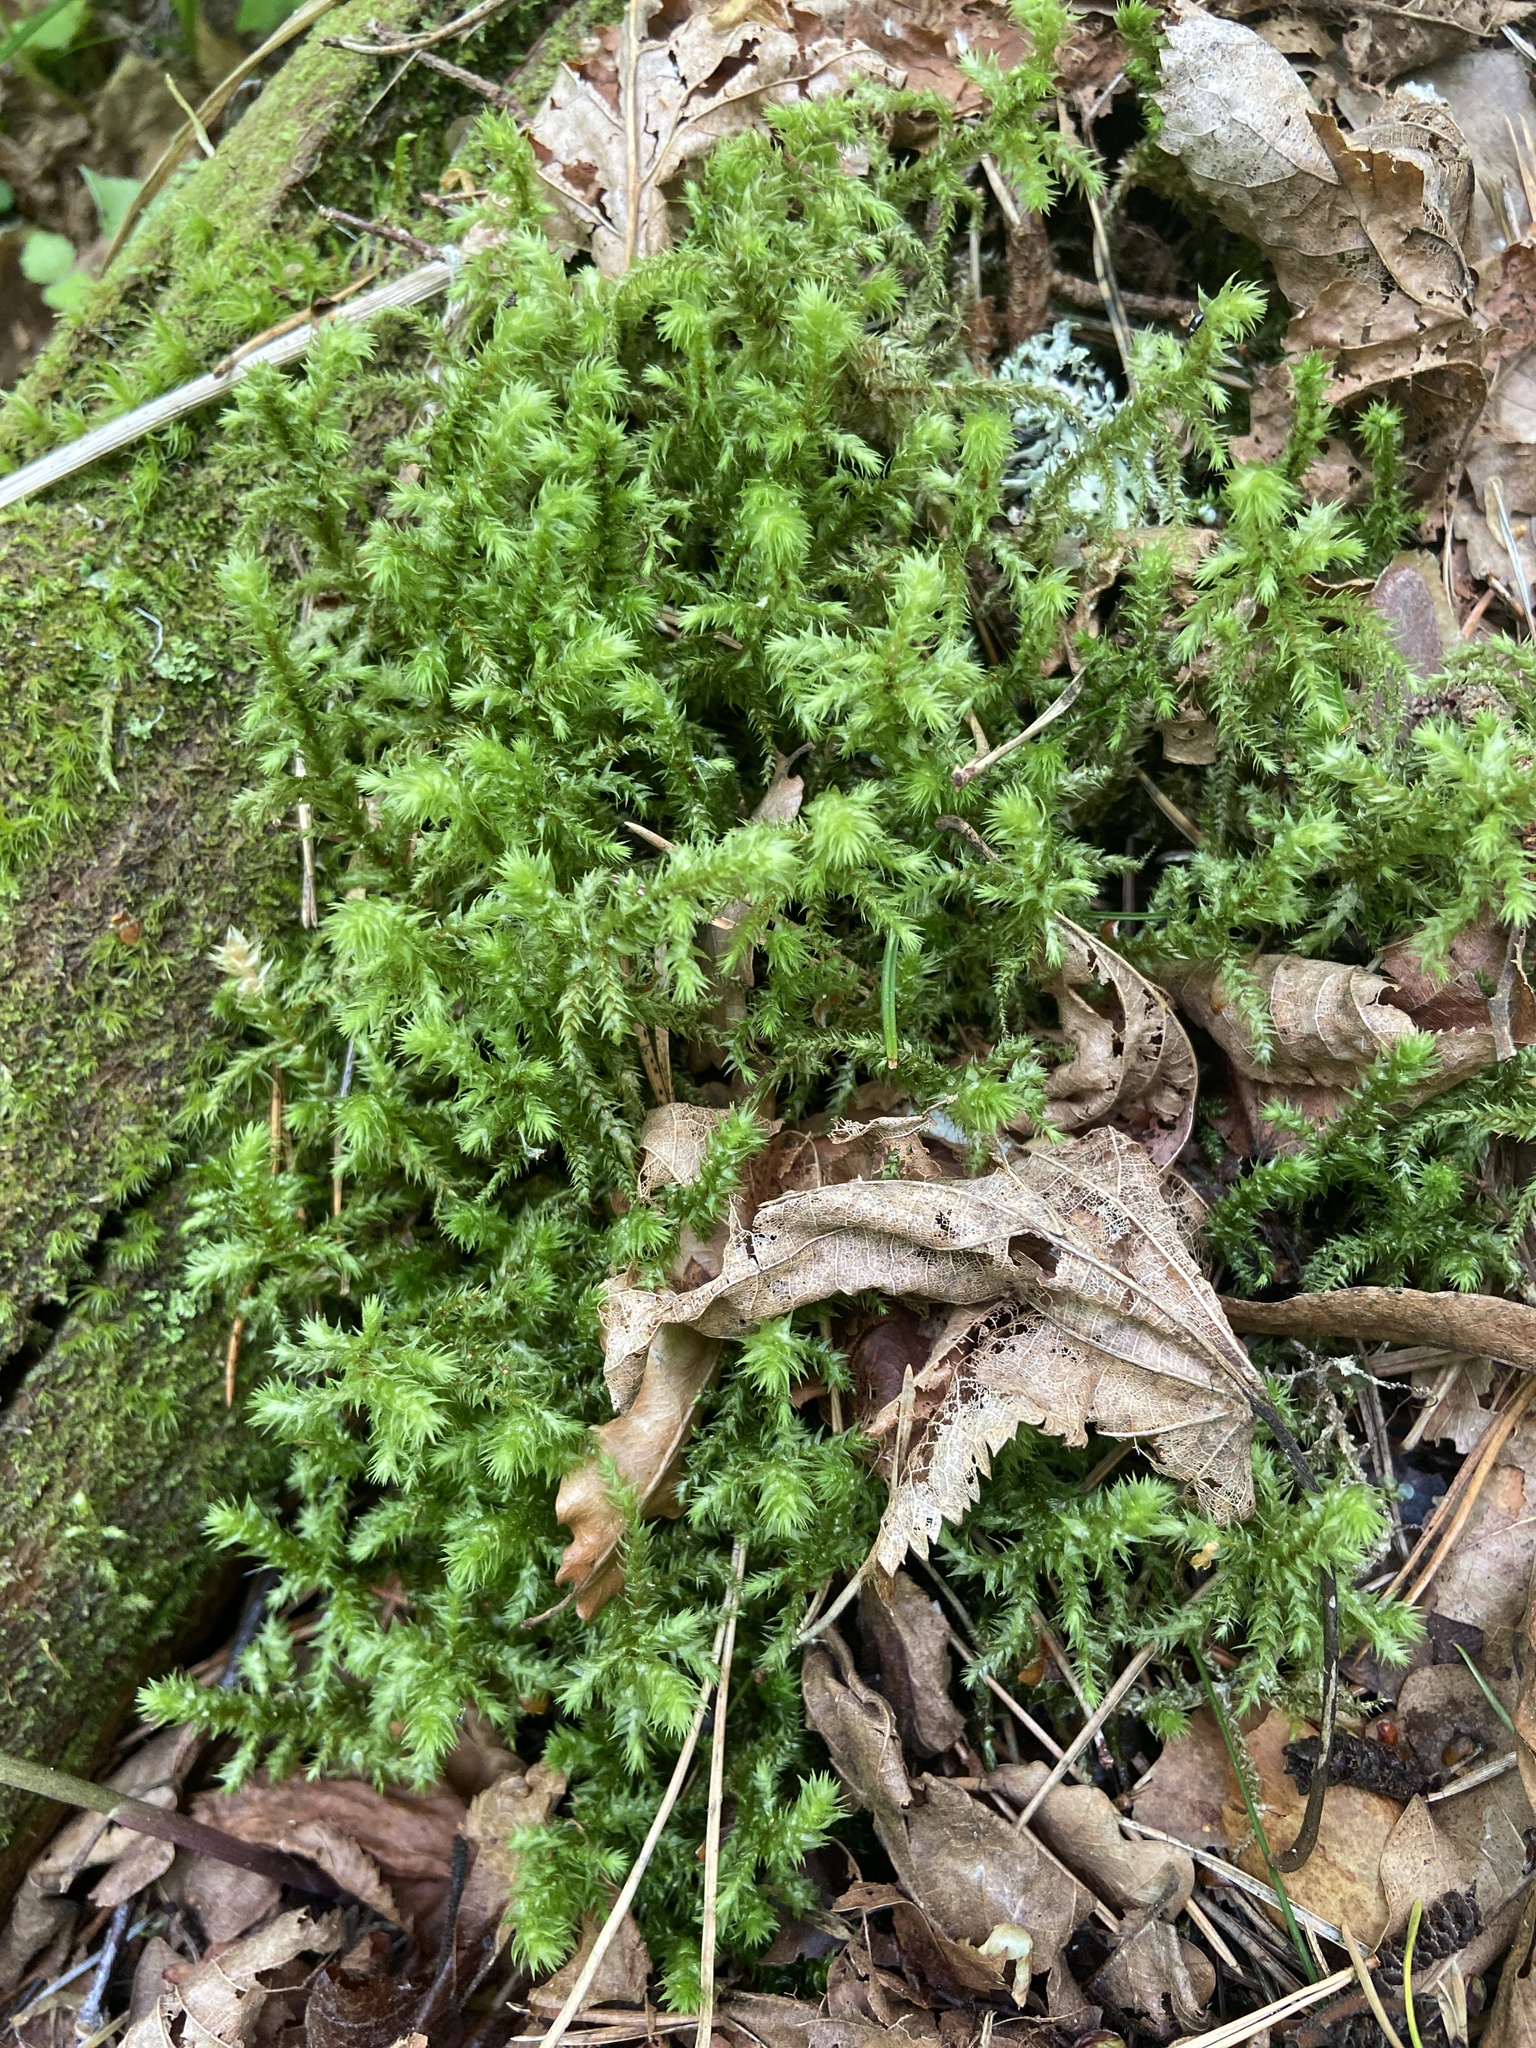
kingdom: Plantae
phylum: Bryophyta
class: Bryopsida
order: Hypnales
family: Hylocomiaceae
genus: Hylocomiadelphus
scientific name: Hylocomiadelphus triquetrus
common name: Rough goose neck moss
